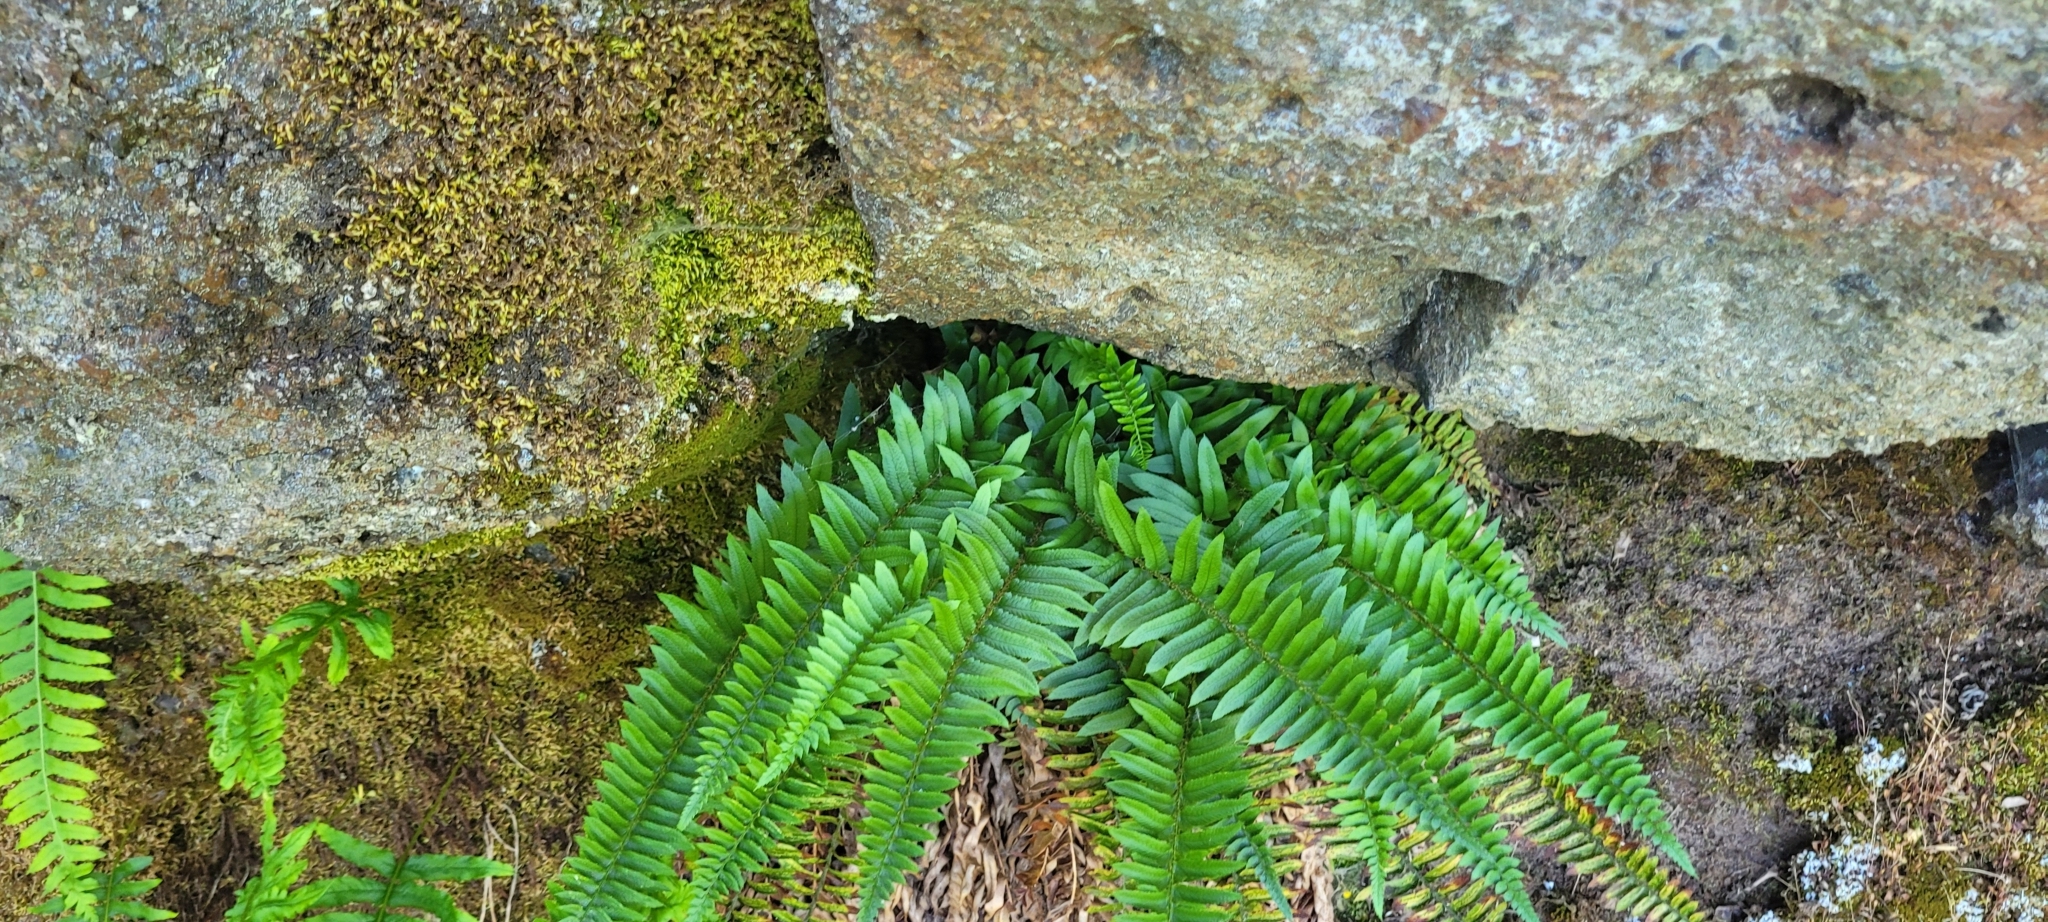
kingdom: Plantae
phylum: Tracheophyta
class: Polypodiopsida
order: Polypodiales
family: Dryopteridaceae
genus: Polystichum
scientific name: Polystichum imbricans
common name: Dwarf western sword fern
